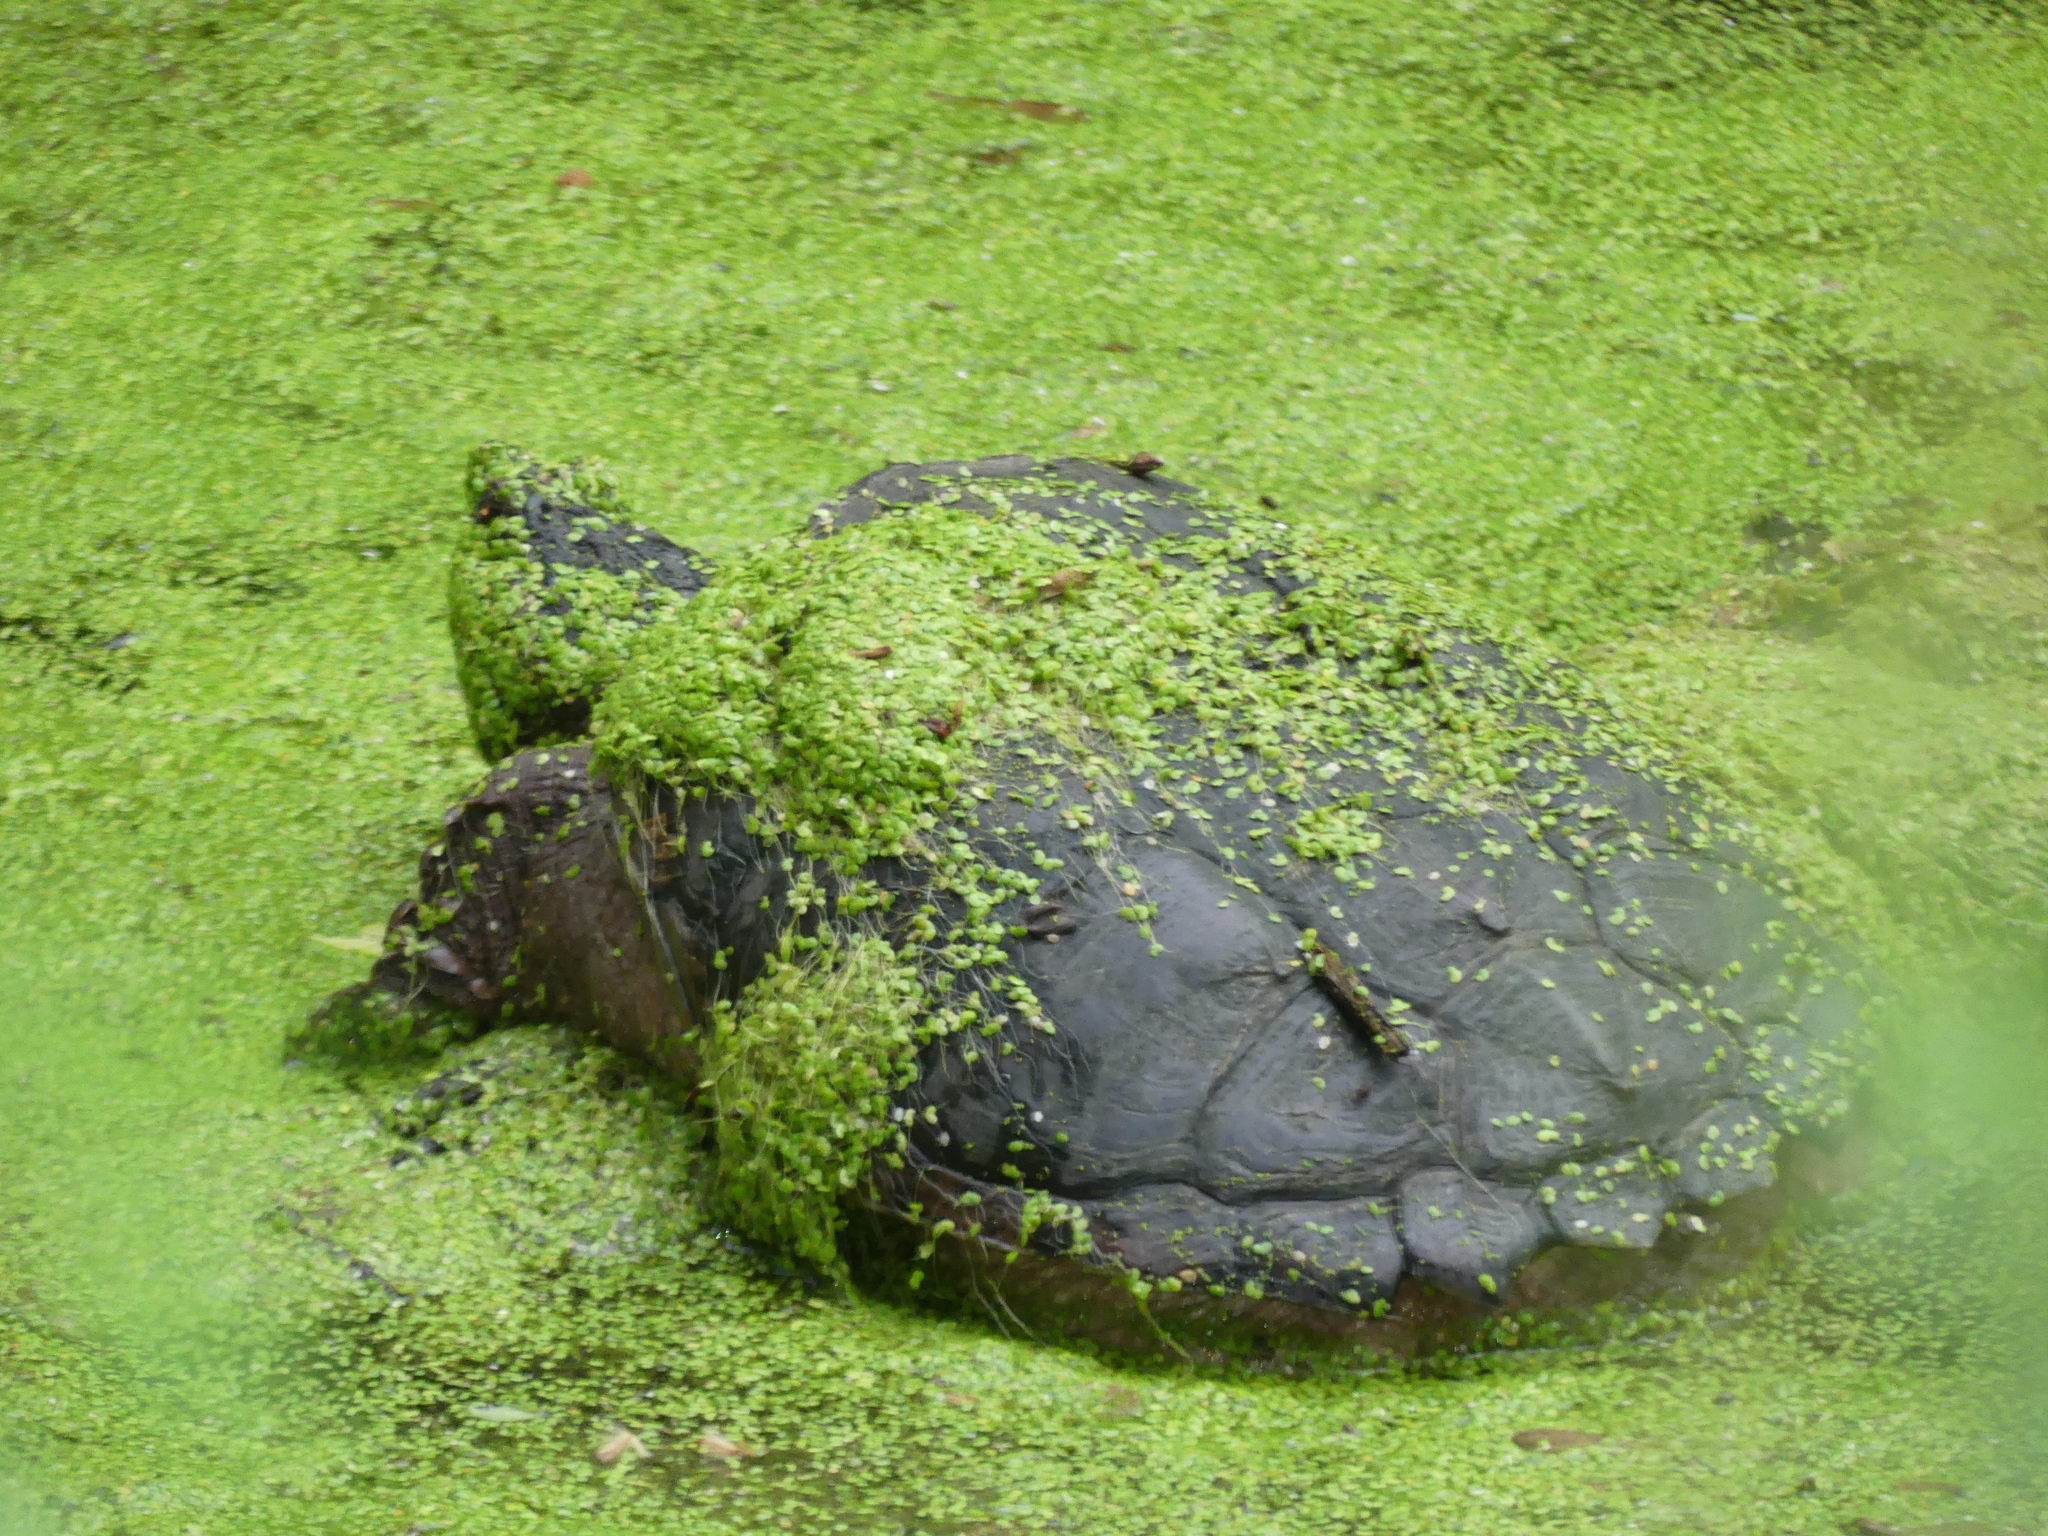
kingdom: Animalia
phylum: Chordata
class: Testudines
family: Chelydridae
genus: Chelydra
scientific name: Chelydra serpentina
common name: Common snapping turtle
